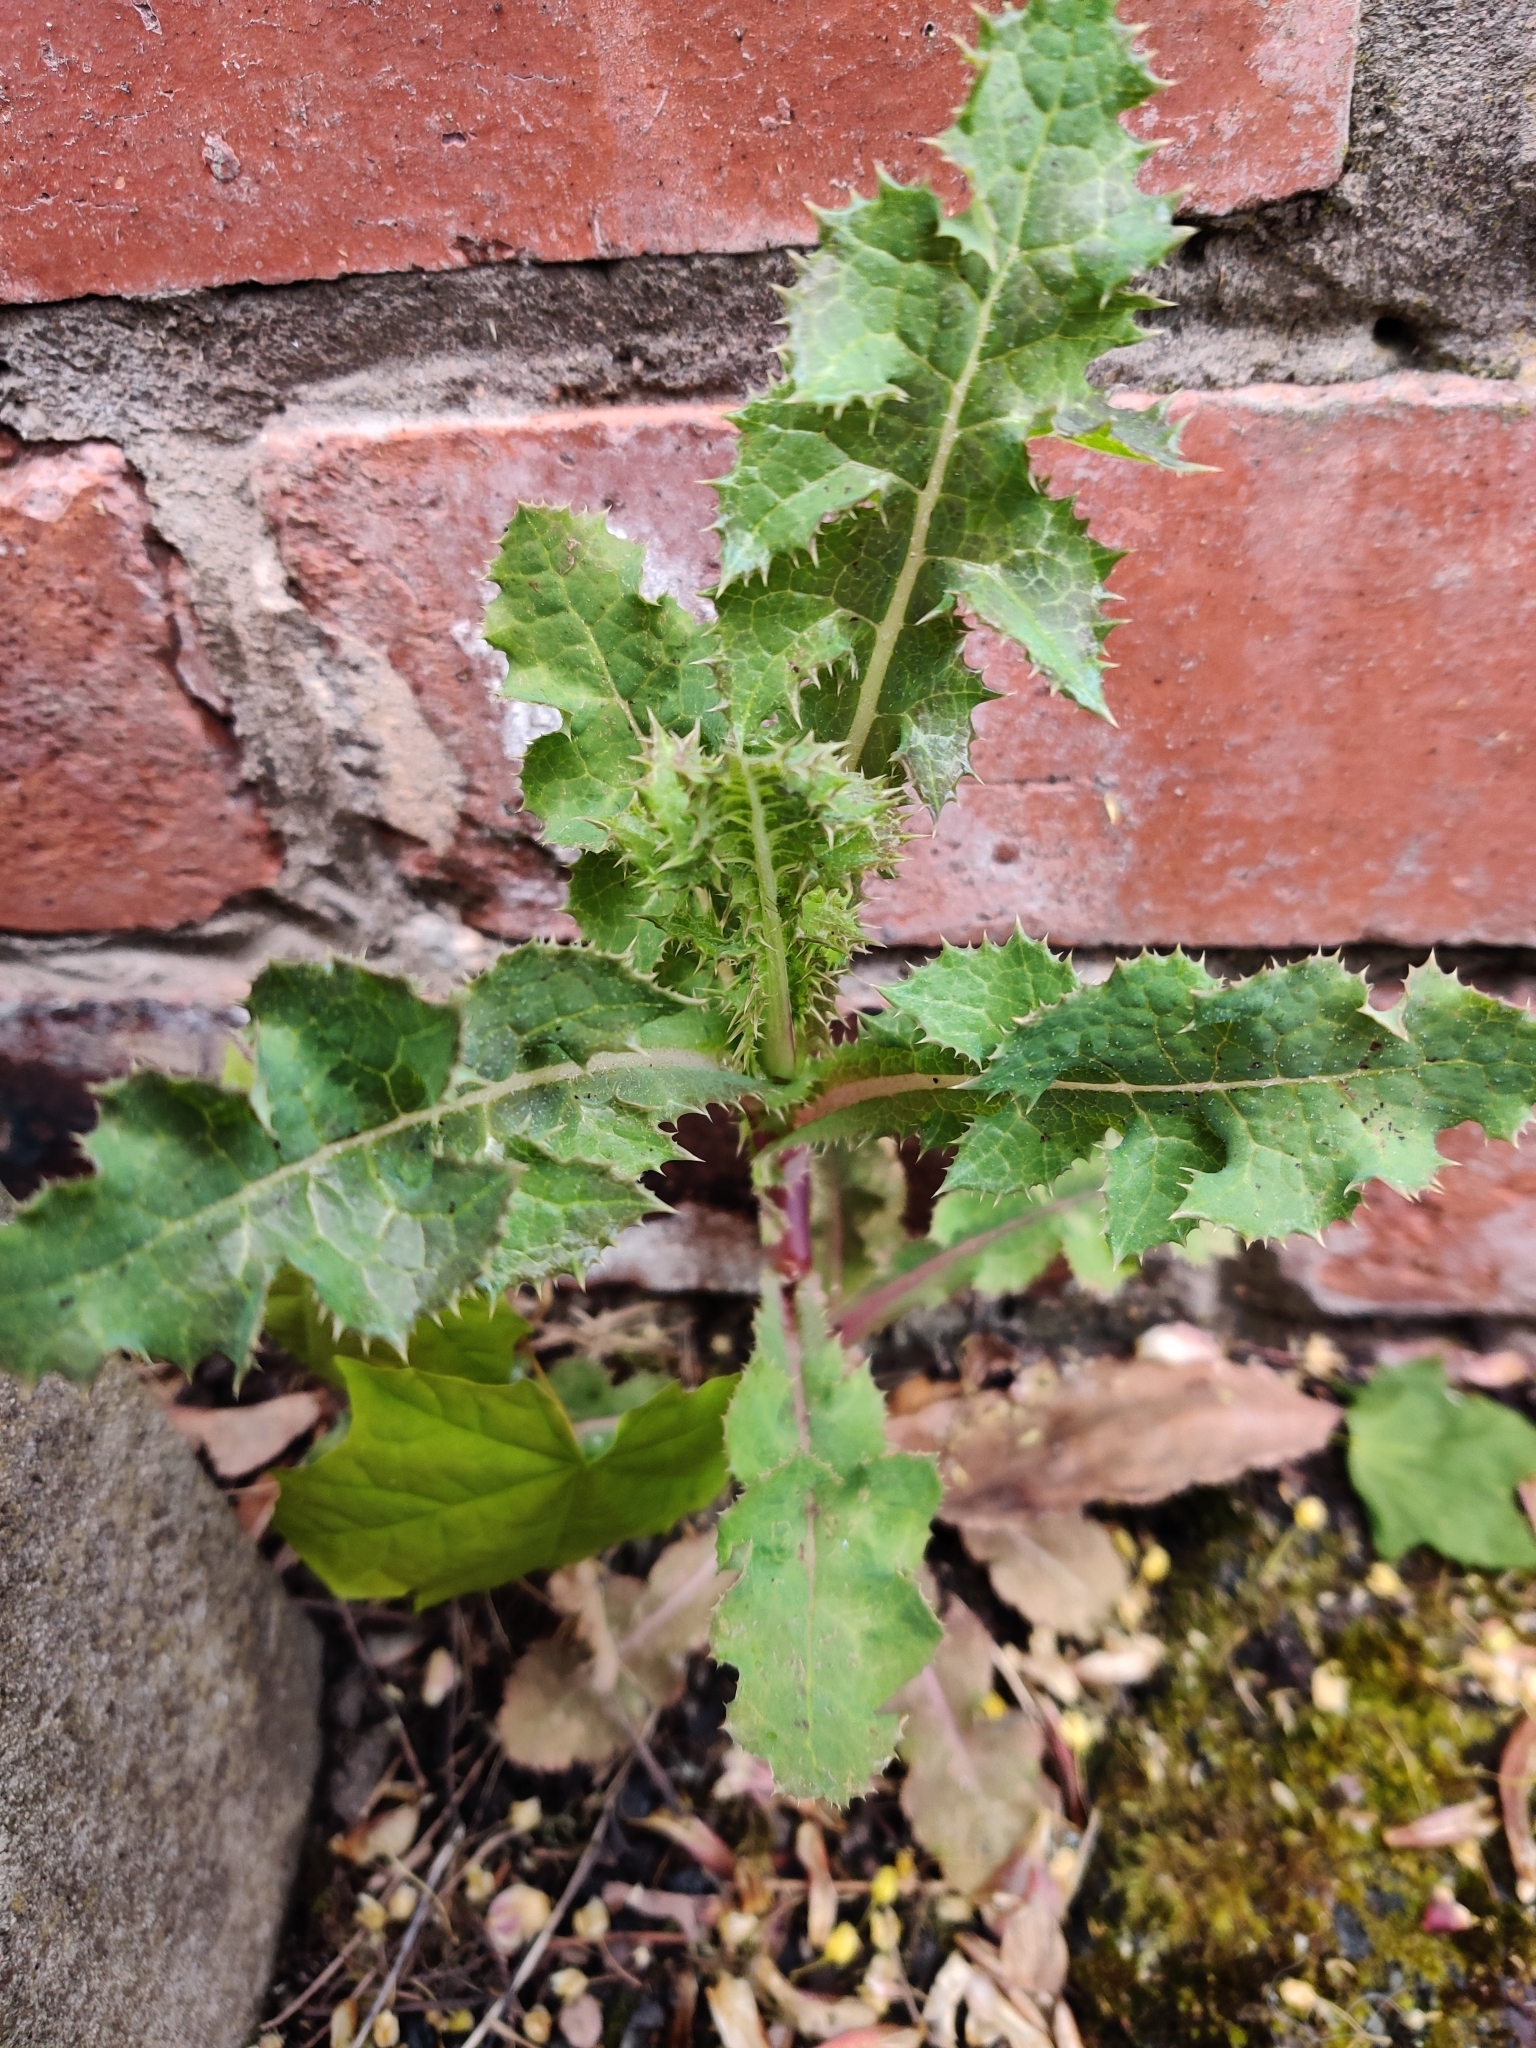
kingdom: Plantae
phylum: Tracheophyta
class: Magnoliopsida
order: Asterales
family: Asteraceae
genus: Sonchus
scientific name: Sonchus asper
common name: Prickly sow-thistle
